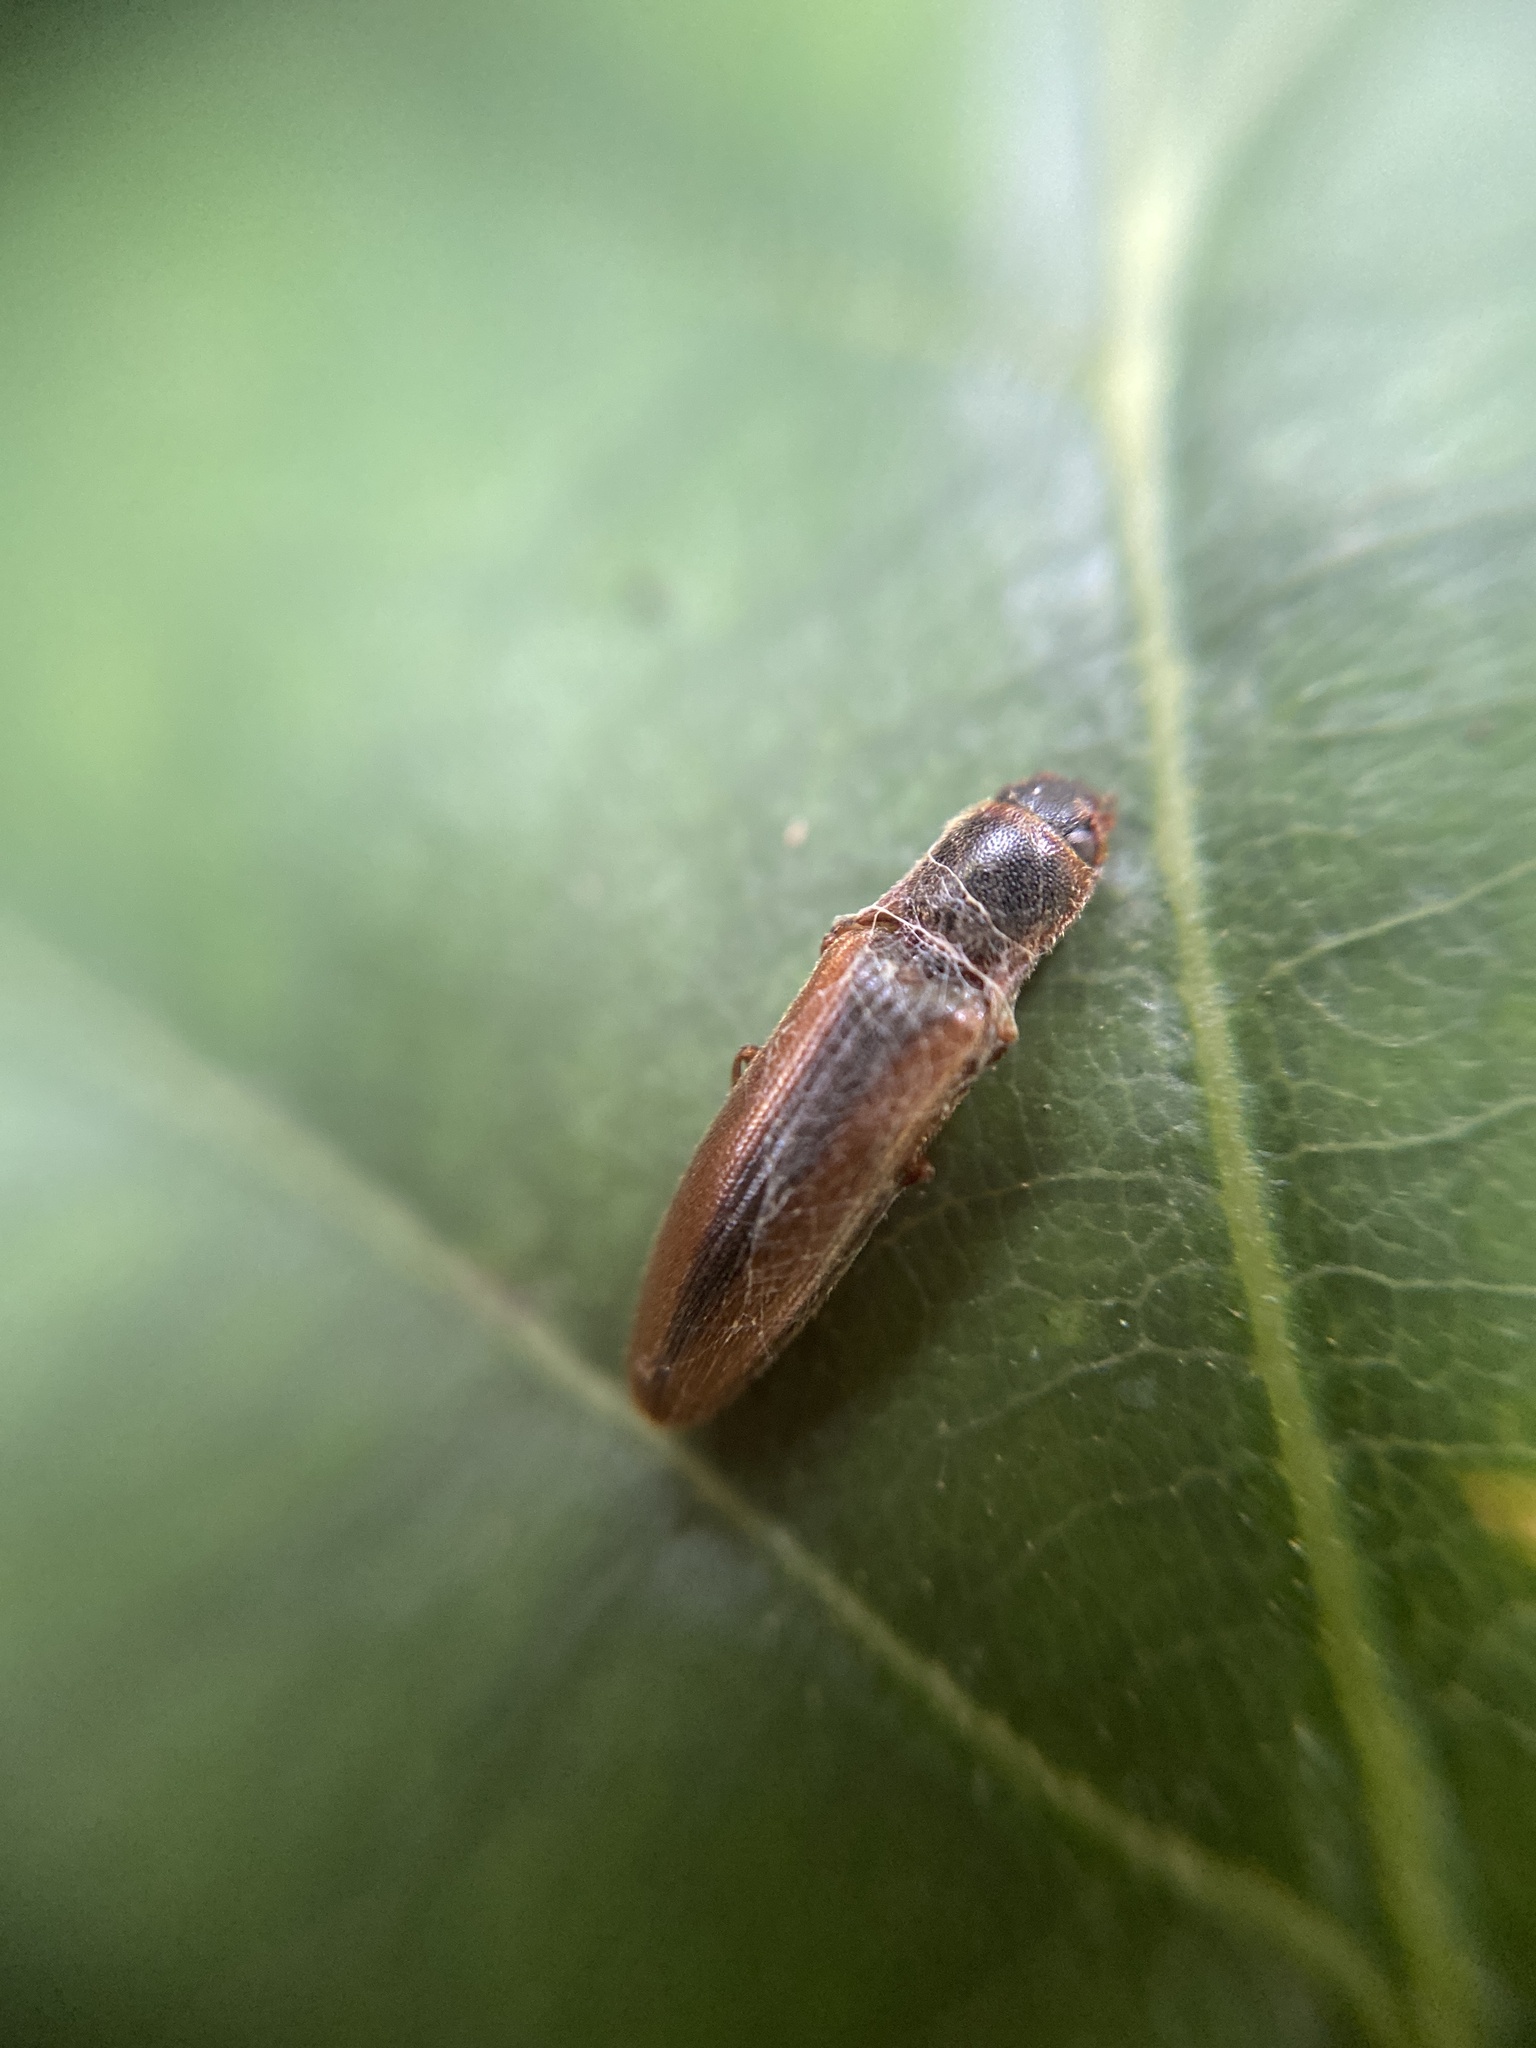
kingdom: Animalia
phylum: Arthropoda
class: Insecta
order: Coleoptera
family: Elateridae
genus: Dalopius
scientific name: Dalopius marginatus
